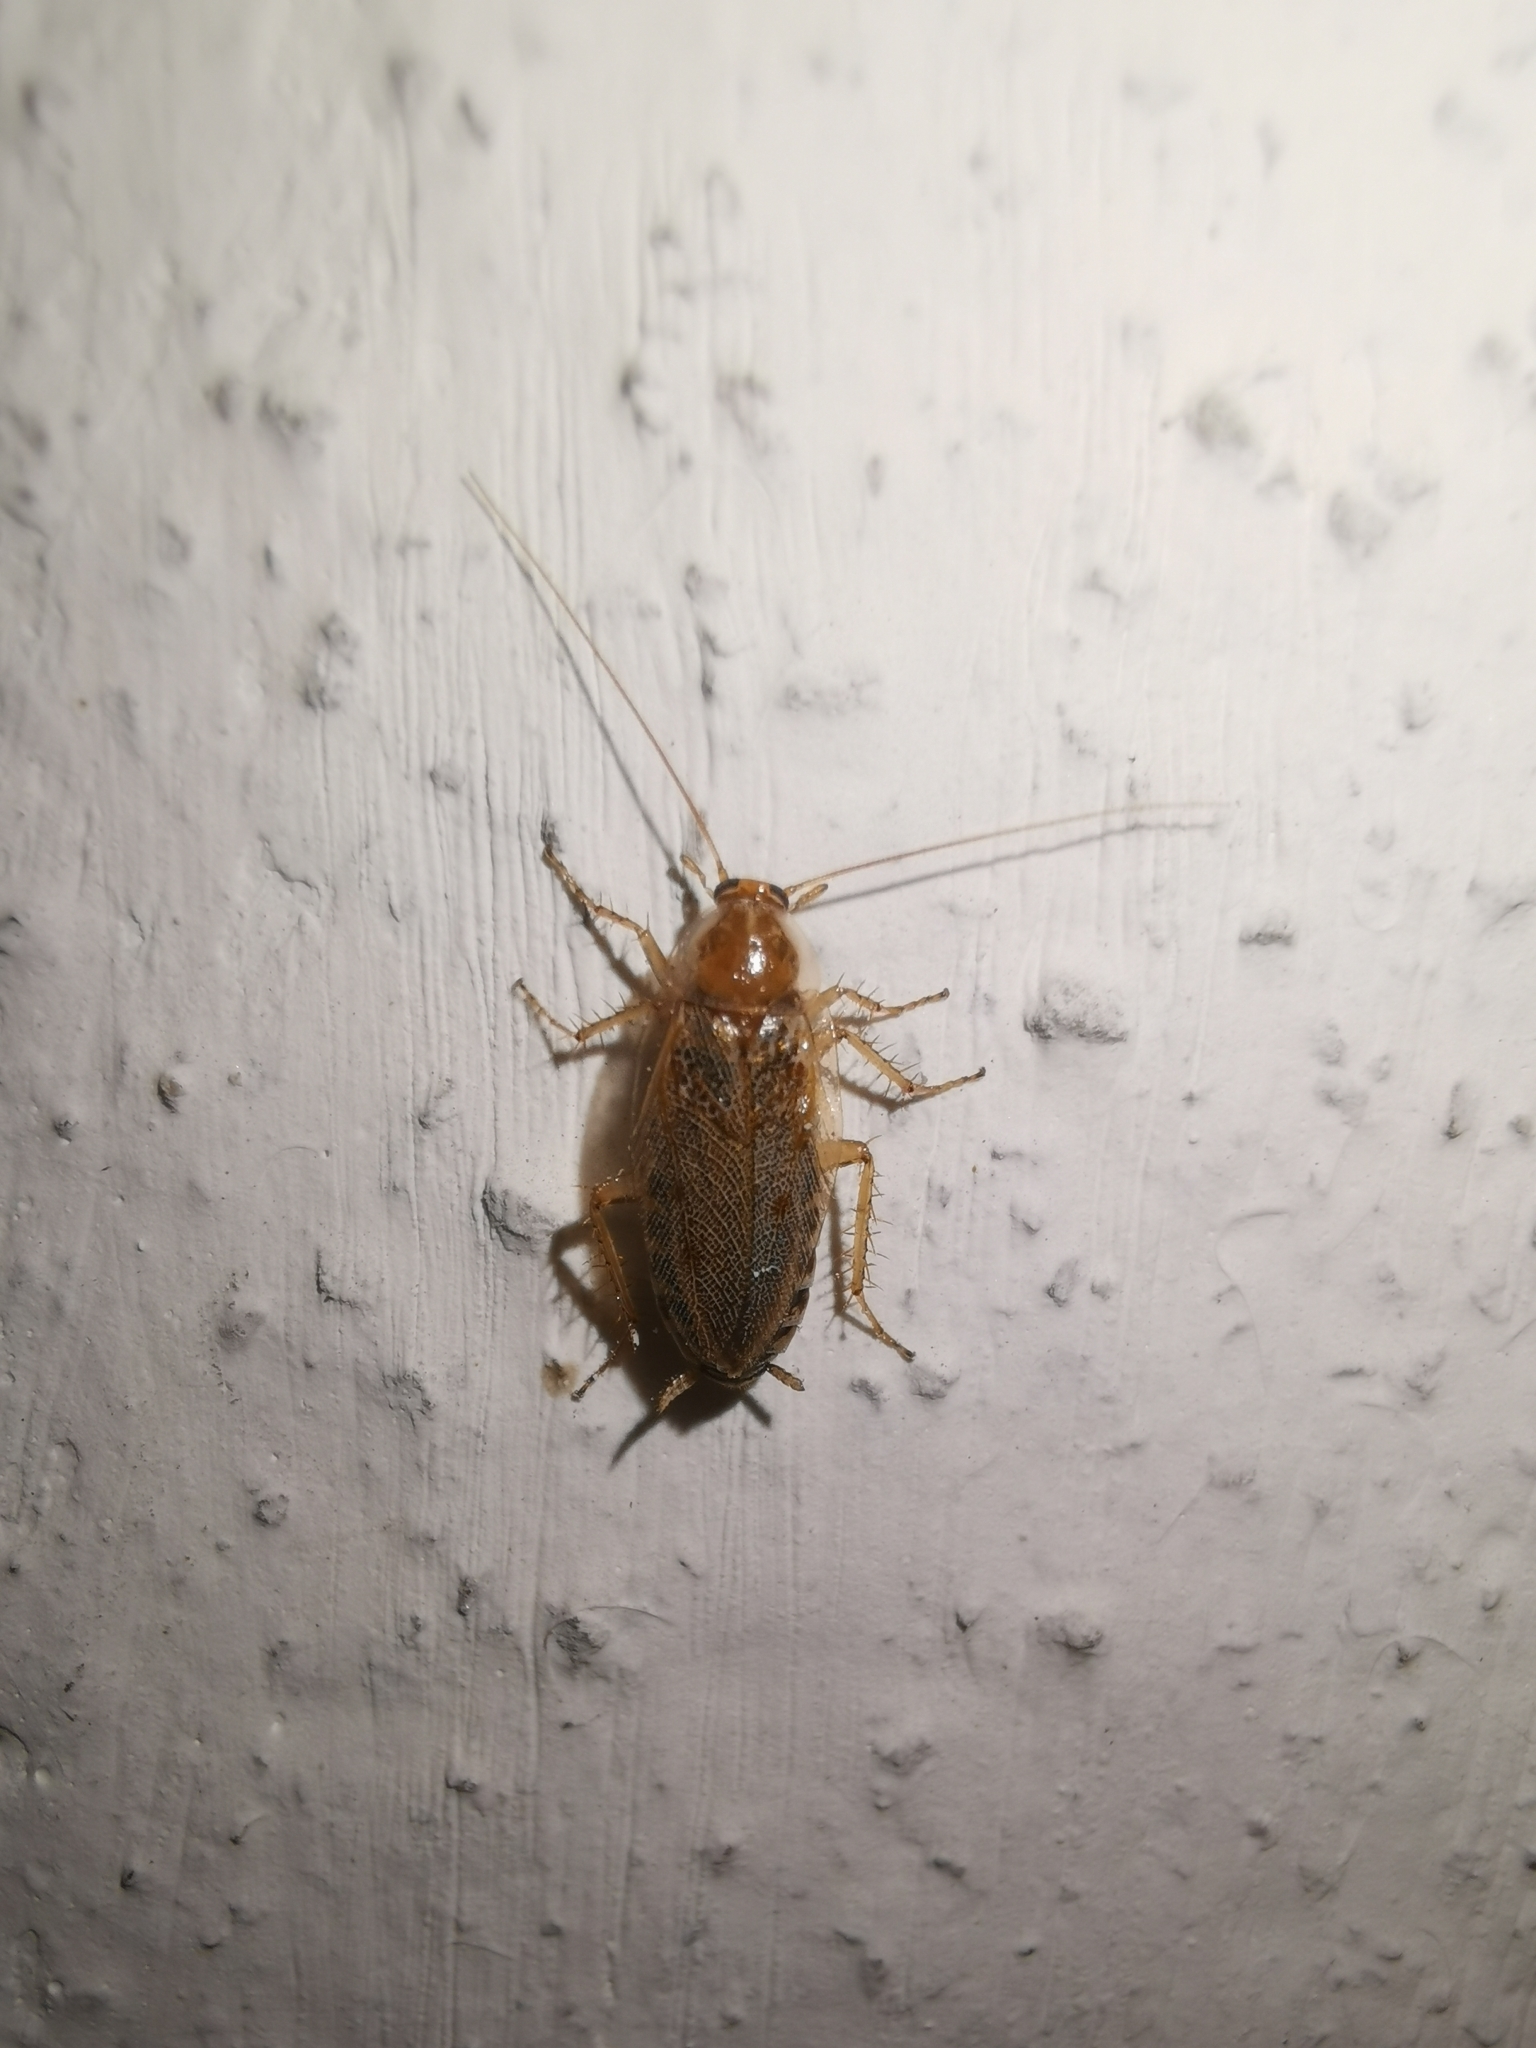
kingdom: Animalia
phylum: Arthropoda
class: Insecta
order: Blattodea
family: Ectobiidae
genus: Ectobius
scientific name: Ectobius vittiventris
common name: Garden cockroach
